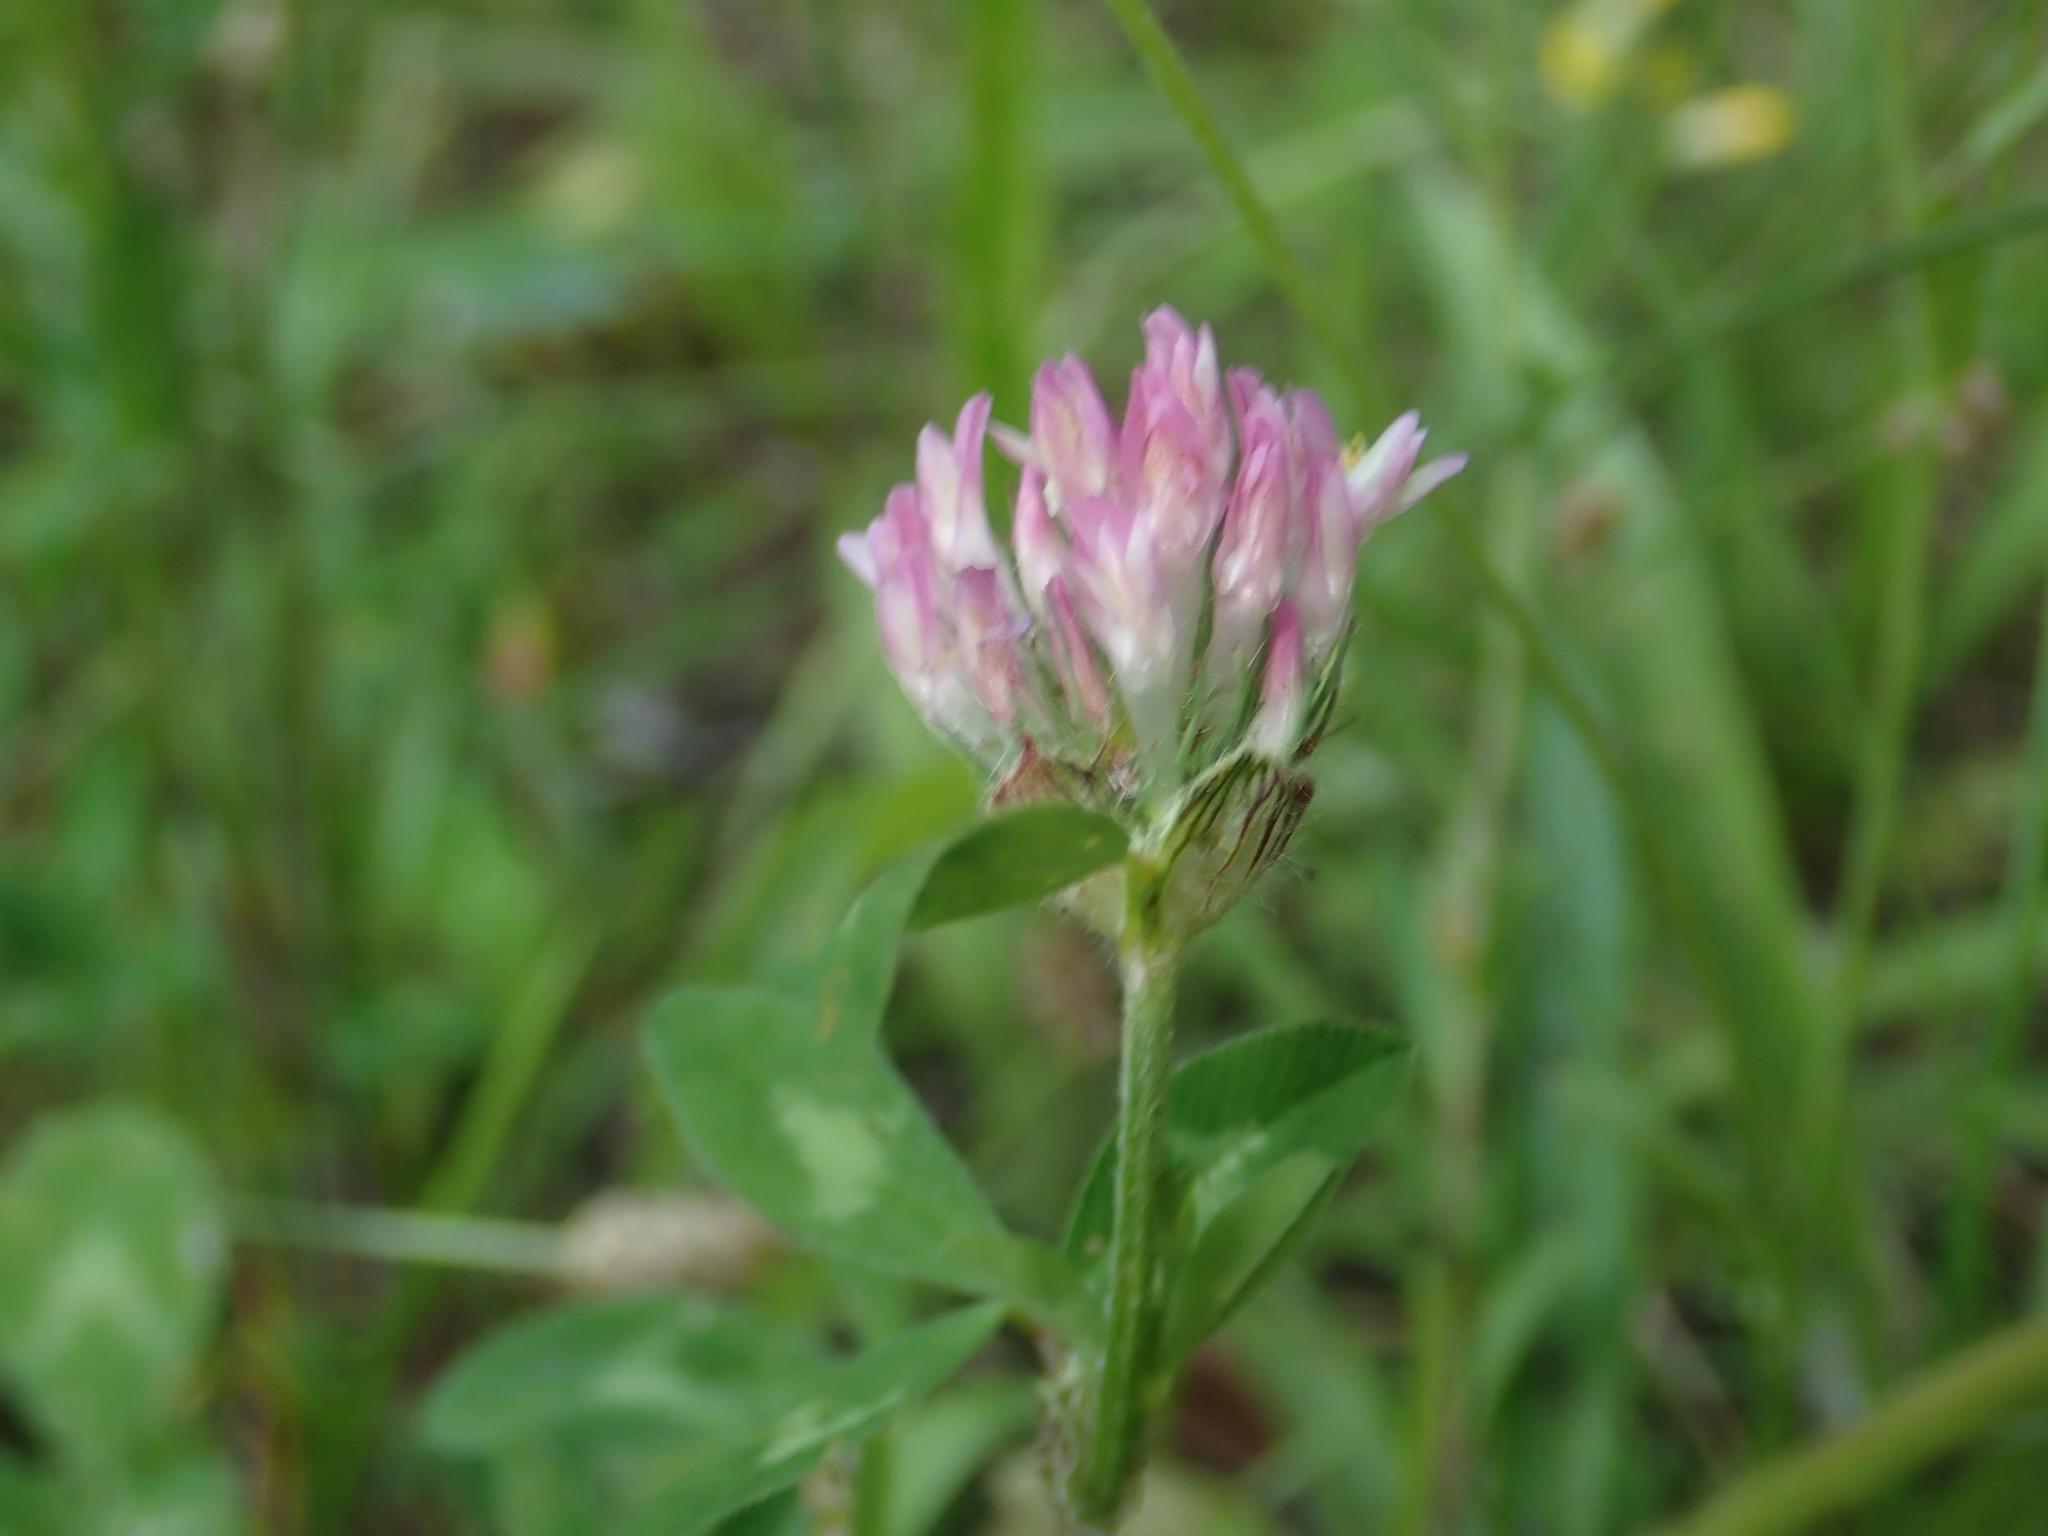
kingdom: Plantae
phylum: Tracheophyta
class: Magnoliopsida
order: Fabales
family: Fabaceae
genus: Trifolium
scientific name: Trifolium pratense
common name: Red clover
